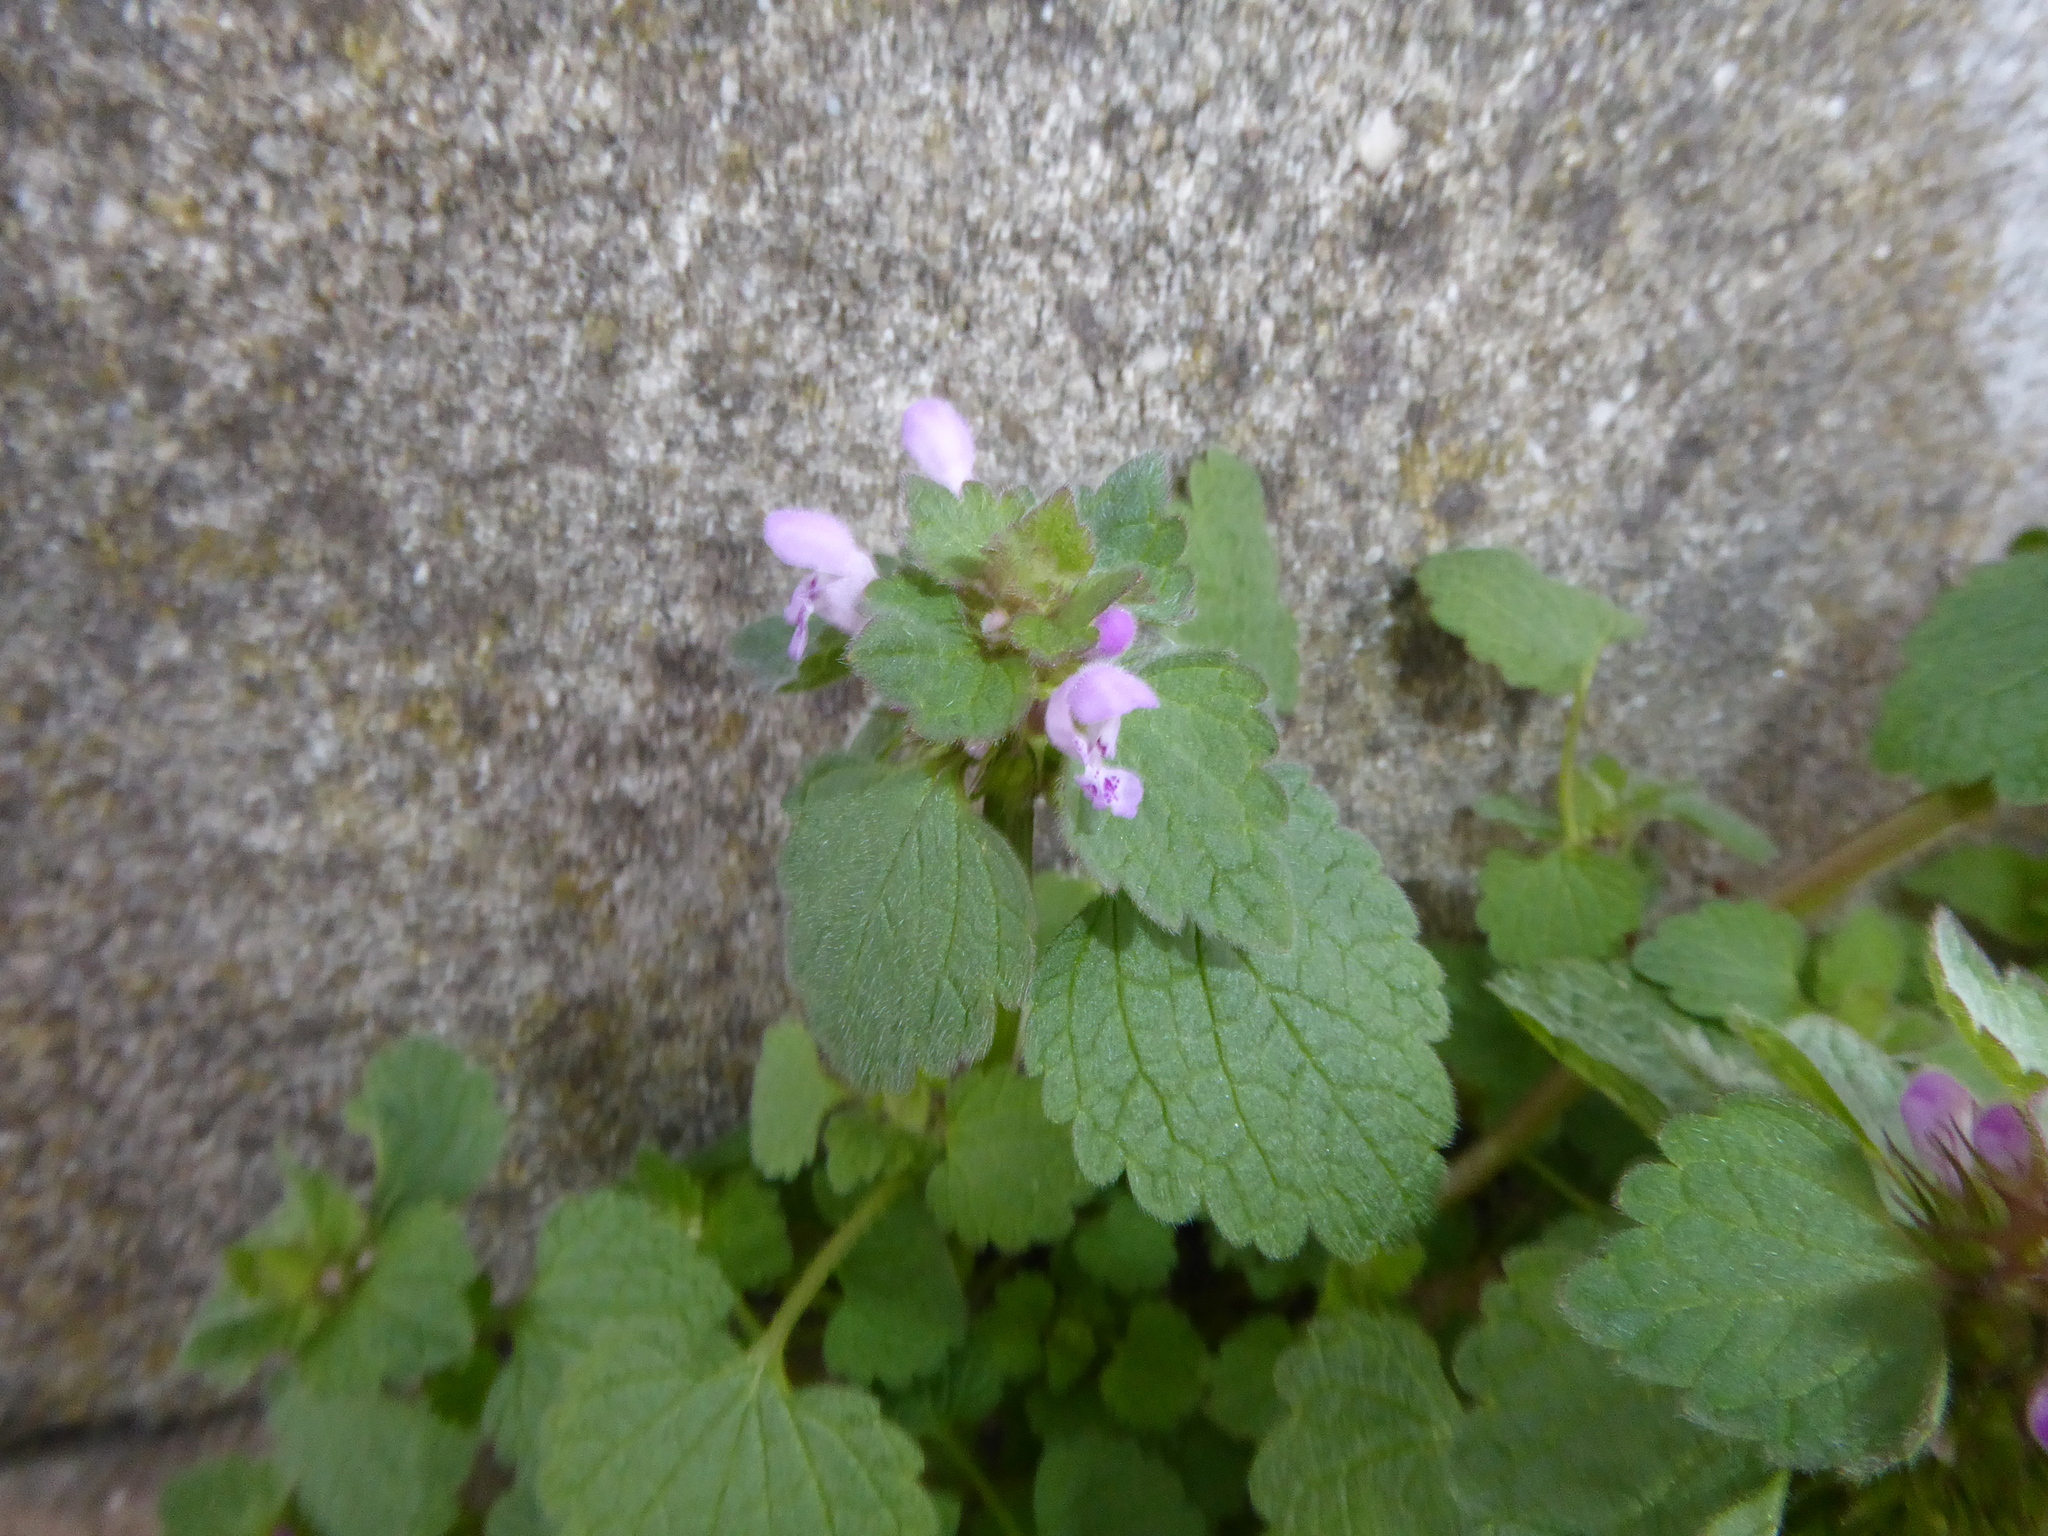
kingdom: Plantae
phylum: Tracheophyta
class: Magnoliopsida
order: Lamiales
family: Lamiaceae
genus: Lamium
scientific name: Lamium purpureum
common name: Red dead-nettle
